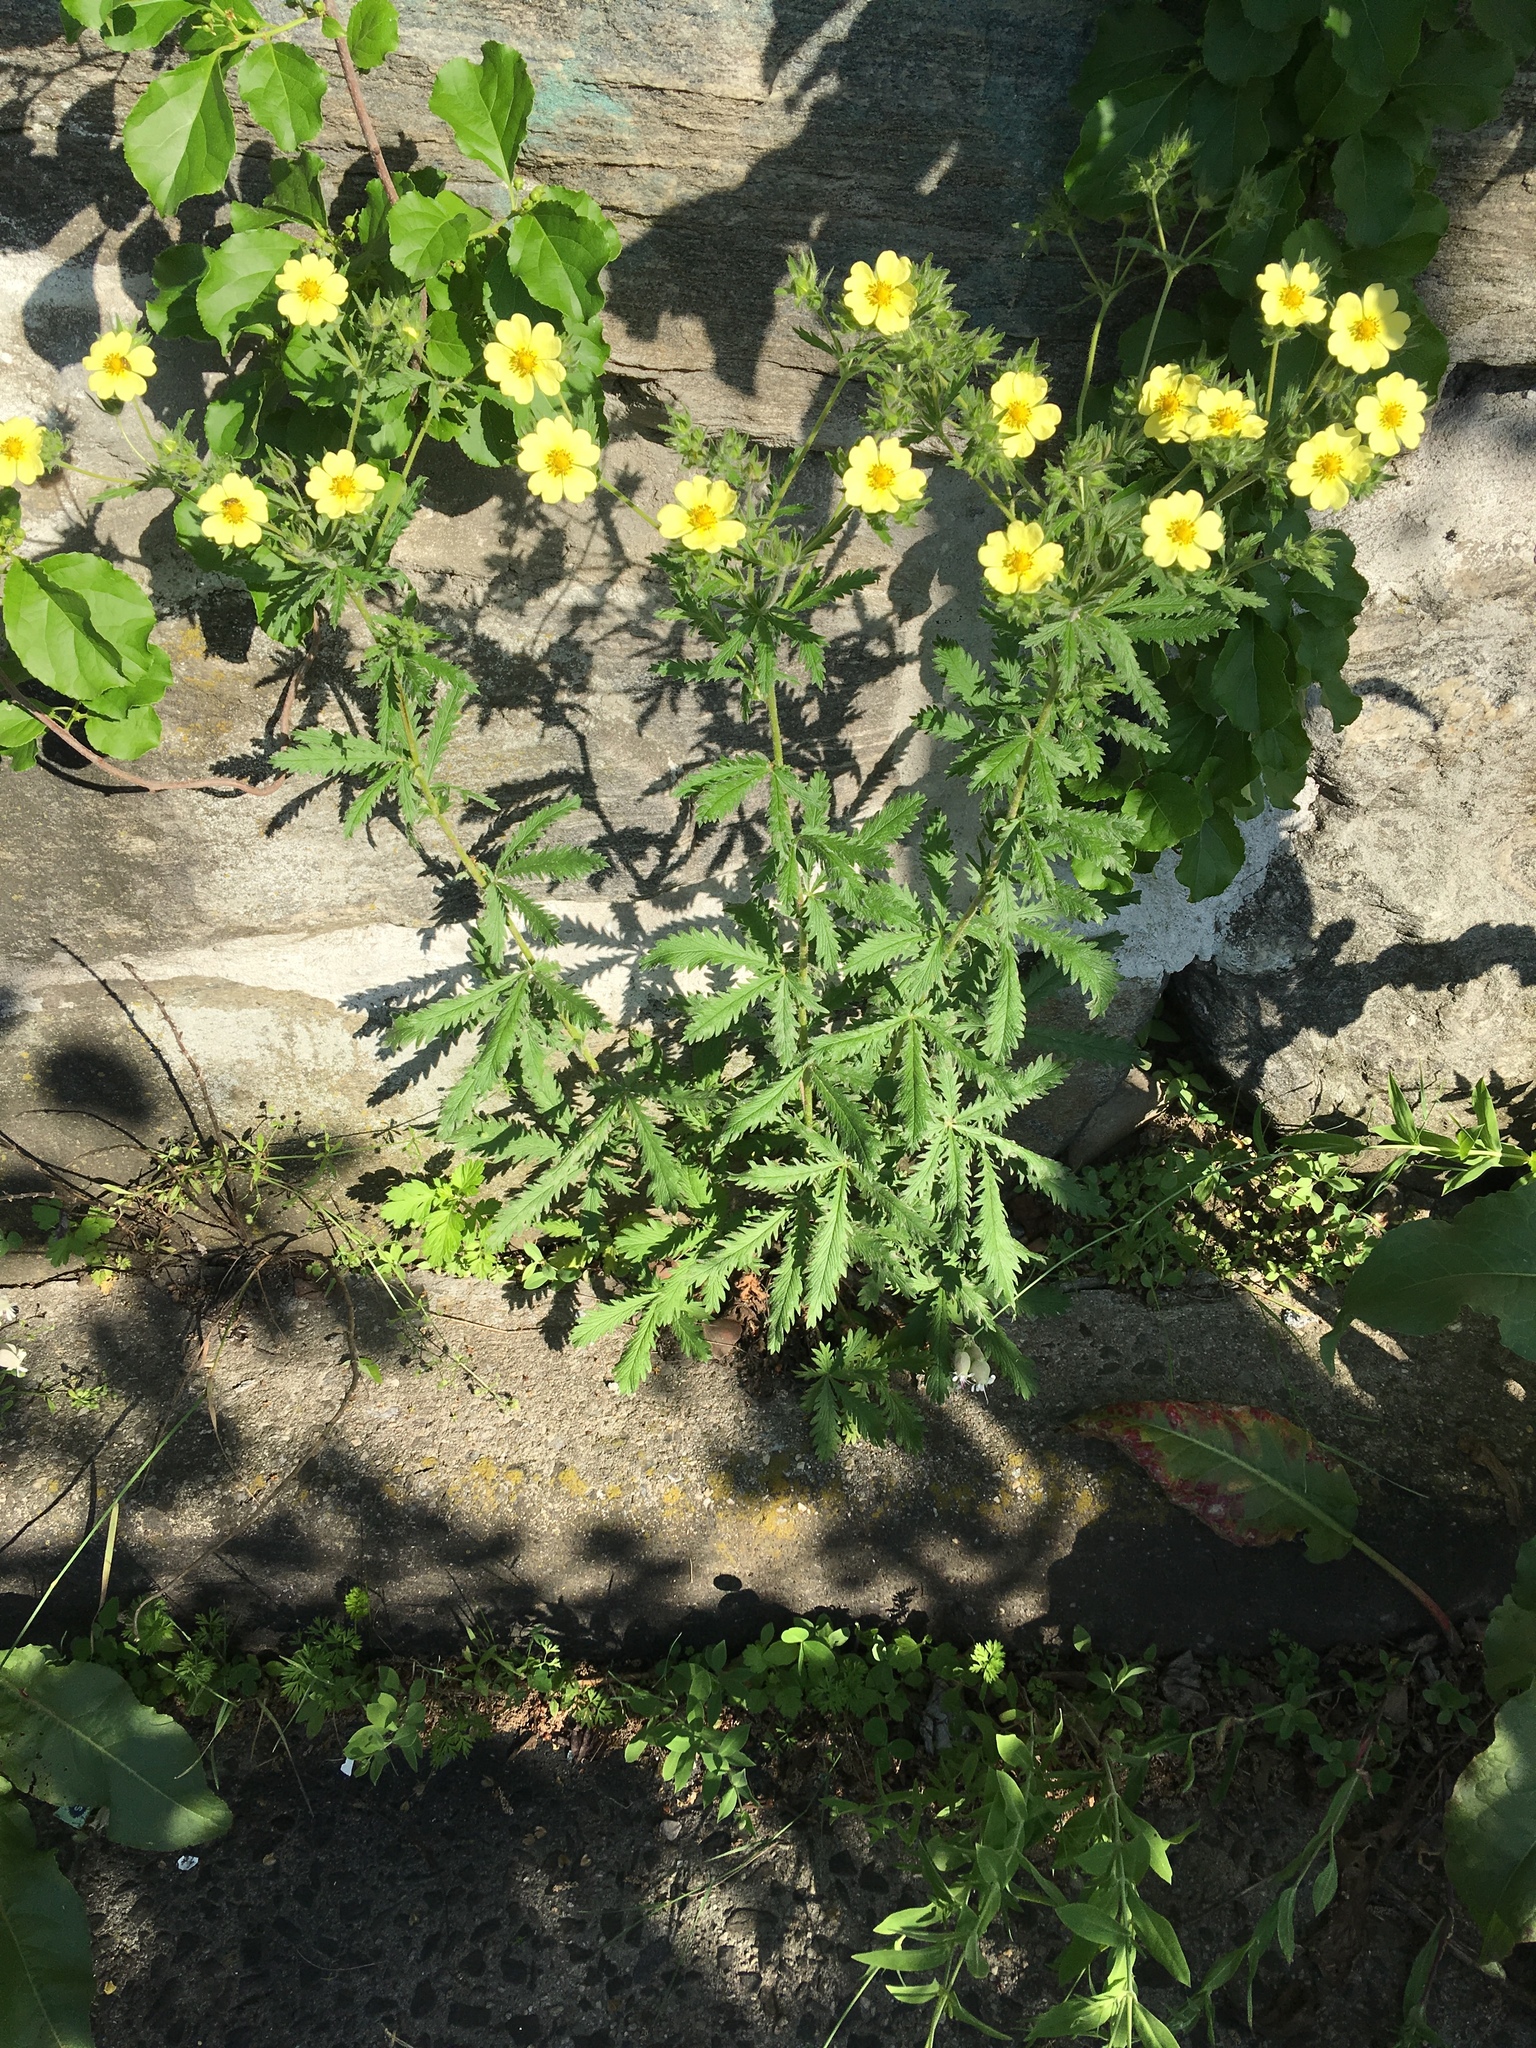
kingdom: Plantae
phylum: Tracheophyta
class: Magnoliopsida
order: Rosales
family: Rosaceae
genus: Potentilla
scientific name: Potentilla recta
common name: Sulphur cinquefoil
